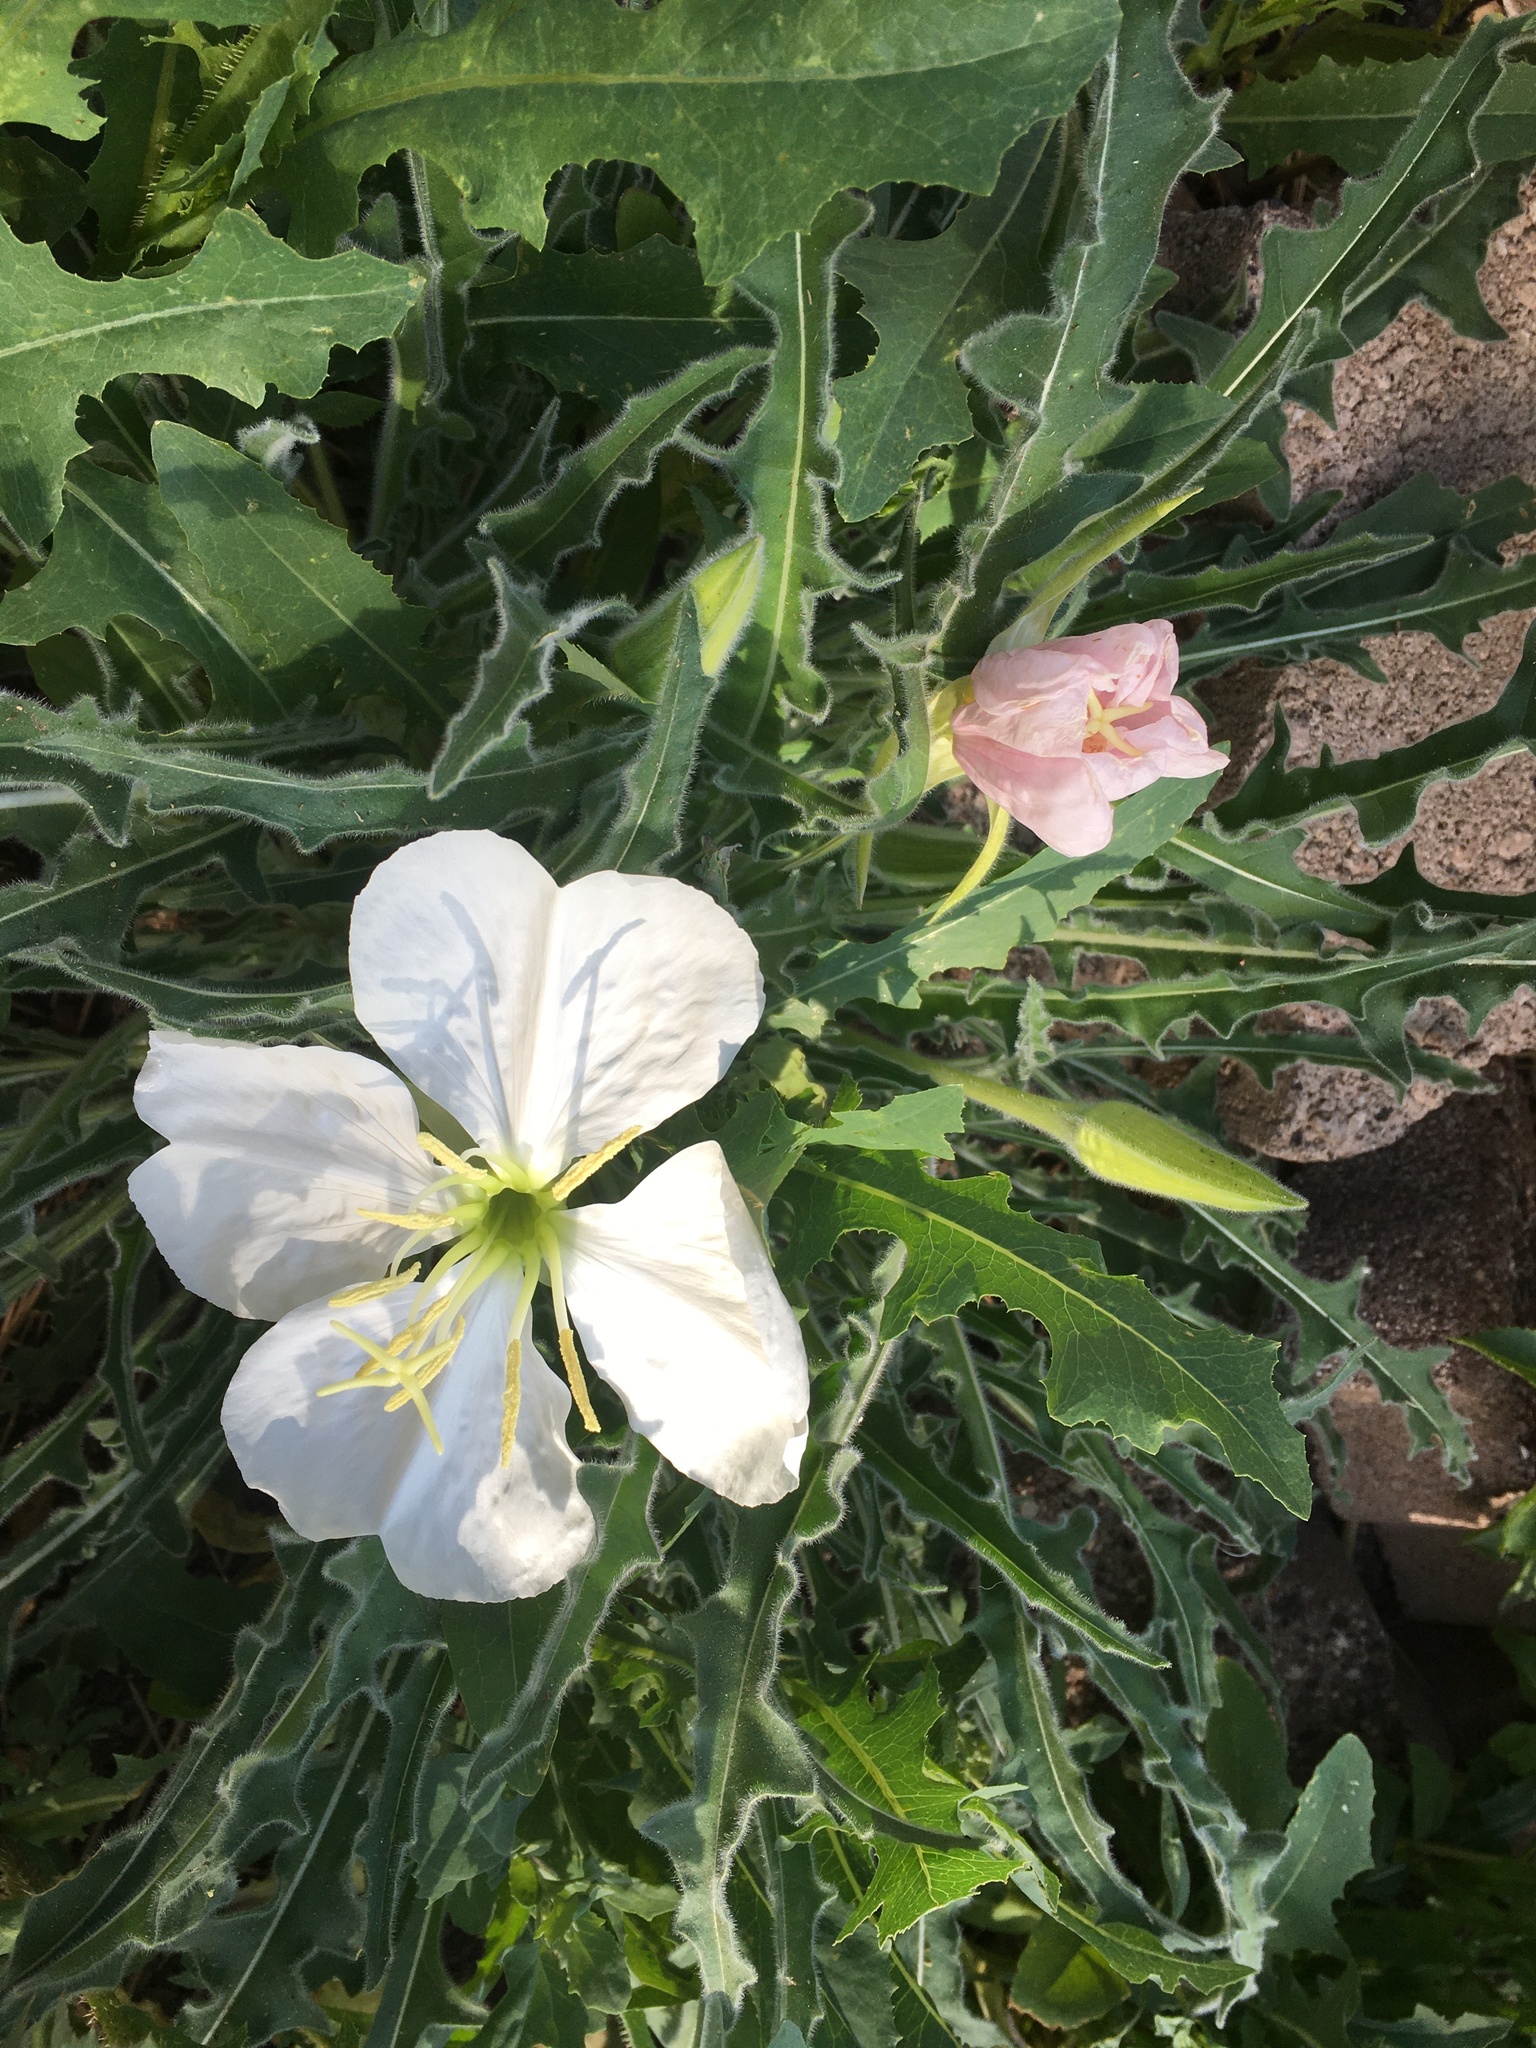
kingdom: Plantae
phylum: Tracheophyta
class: Magnoliopsida
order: Myrtales
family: Onagraceae
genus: Oenothera
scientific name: Oenothera cespitosa
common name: Tufted evening-primrose
